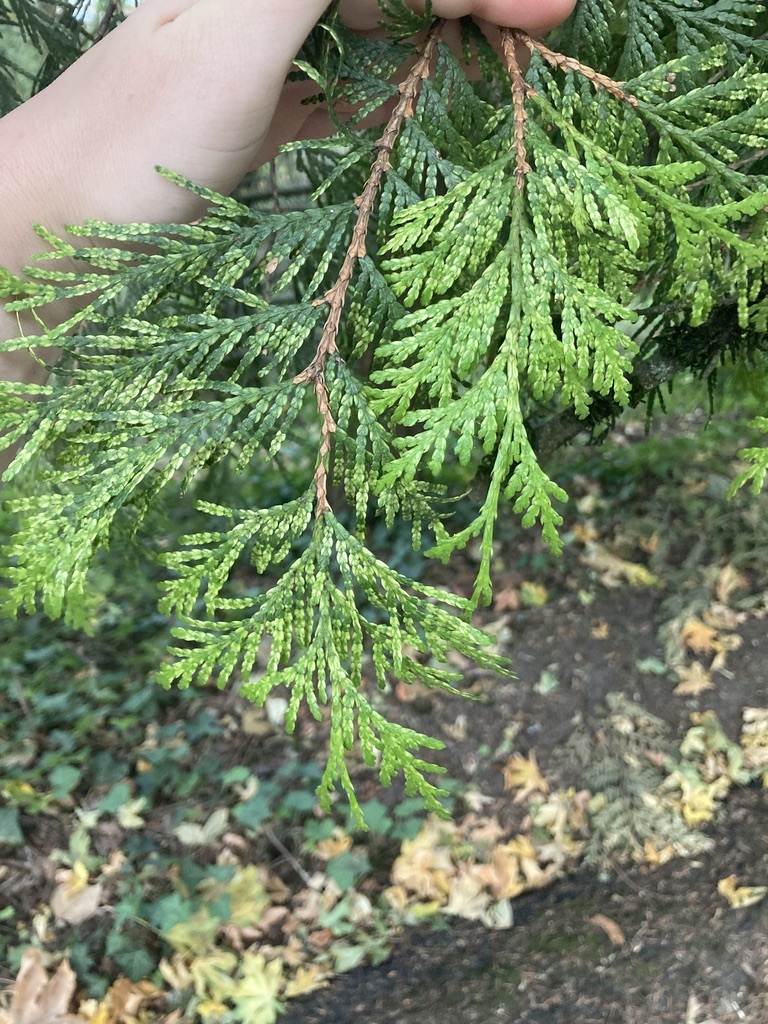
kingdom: Plantae
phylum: Tracheophyta
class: Pinopsida
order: Pinales
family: Cupressaceae
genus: Thuja
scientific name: Thuja plicata
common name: Western red-cedar
